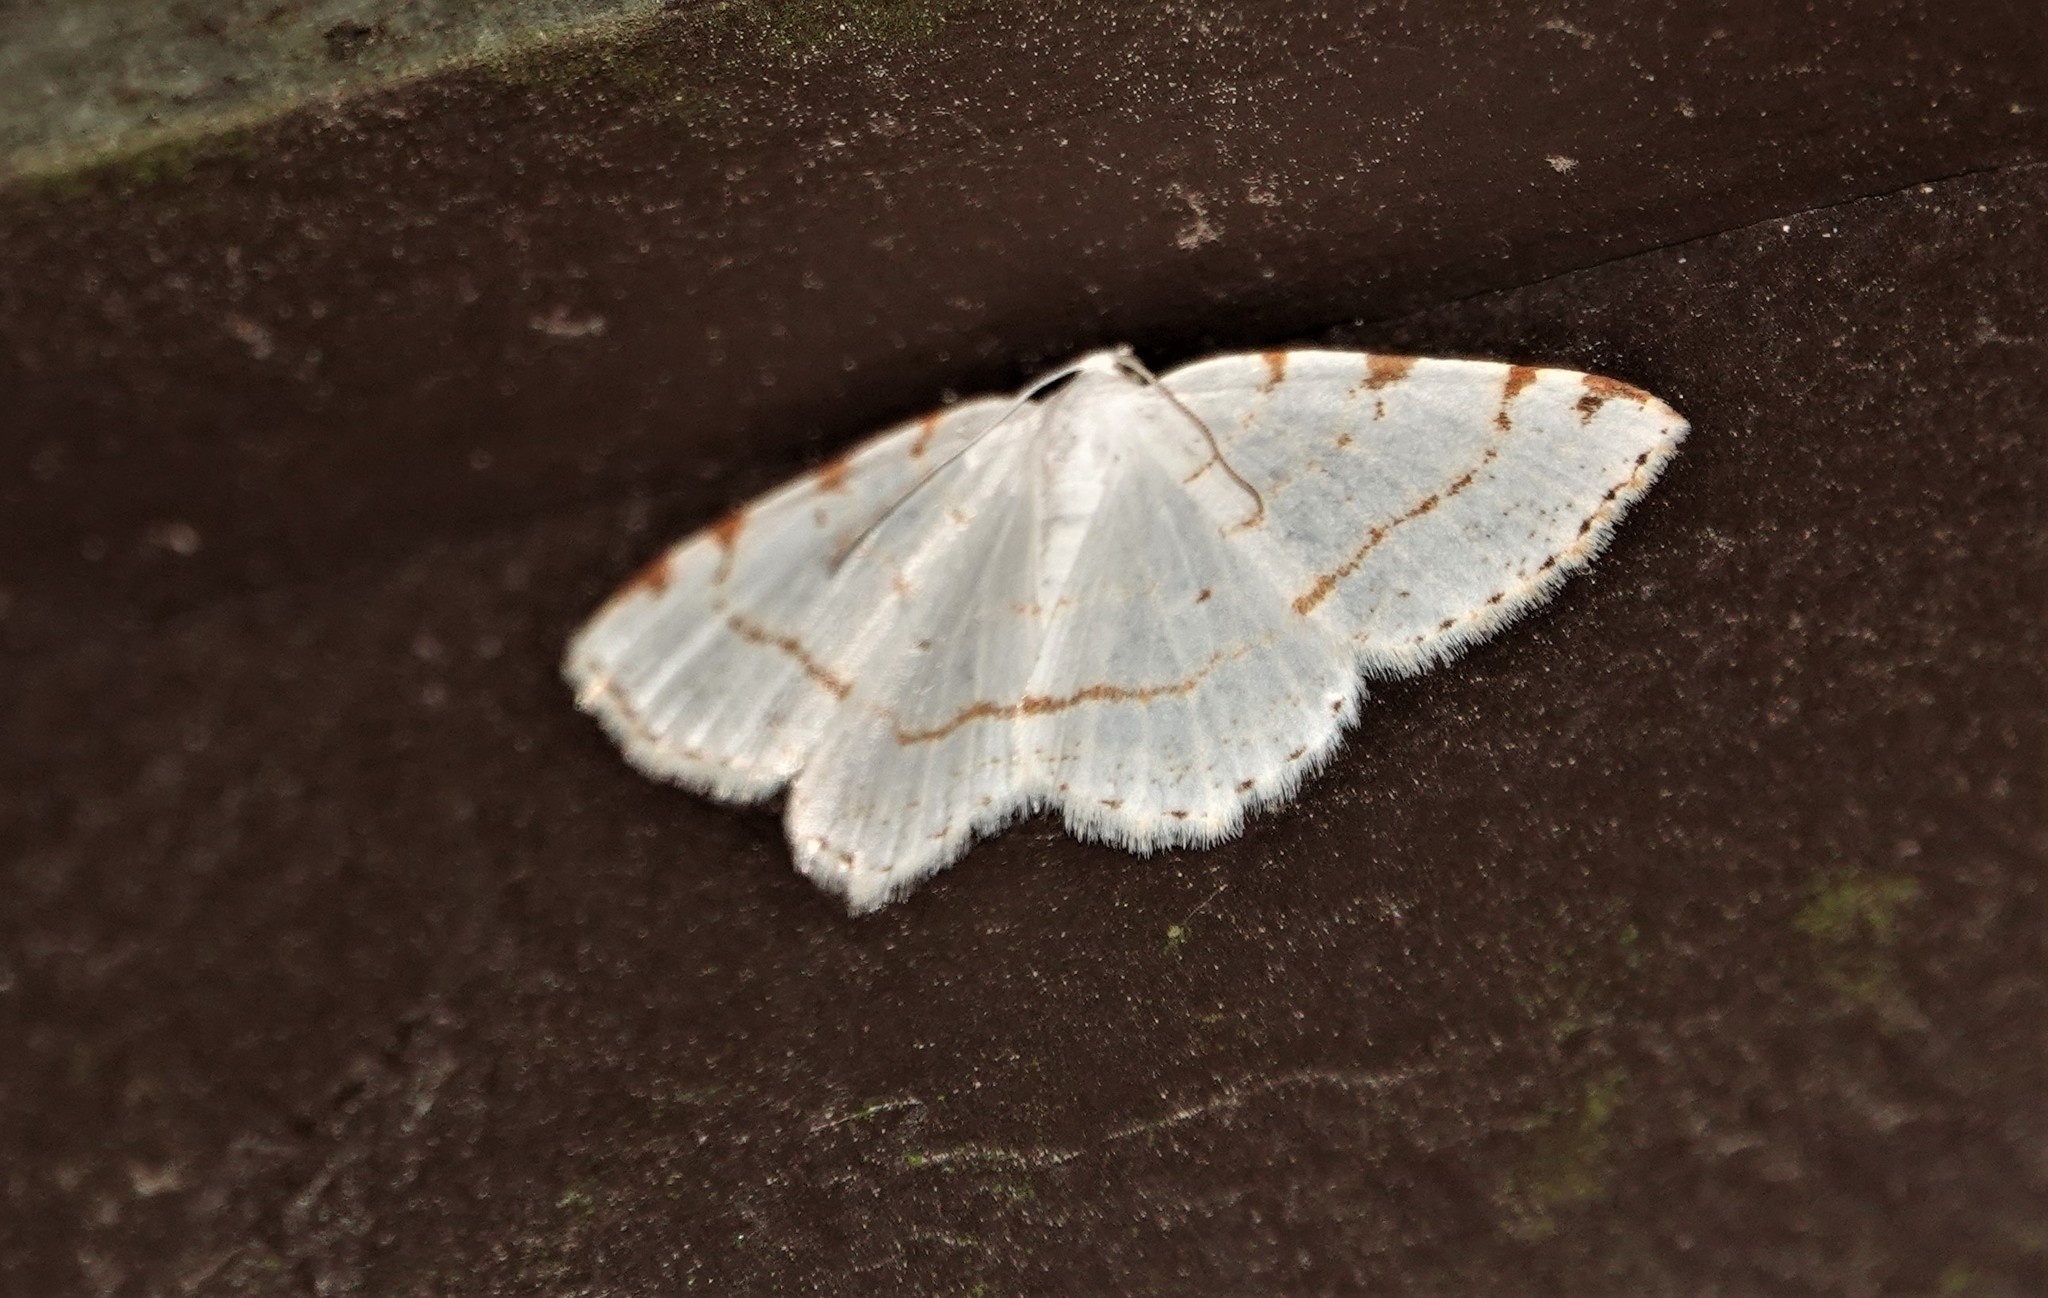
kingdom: Animalia
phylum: Arthropoda
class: Insecta
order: Lepidoptera
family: Geometridae
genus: Macaria
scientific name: Macaria pustularia
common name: Lesser maple spanworm moth
